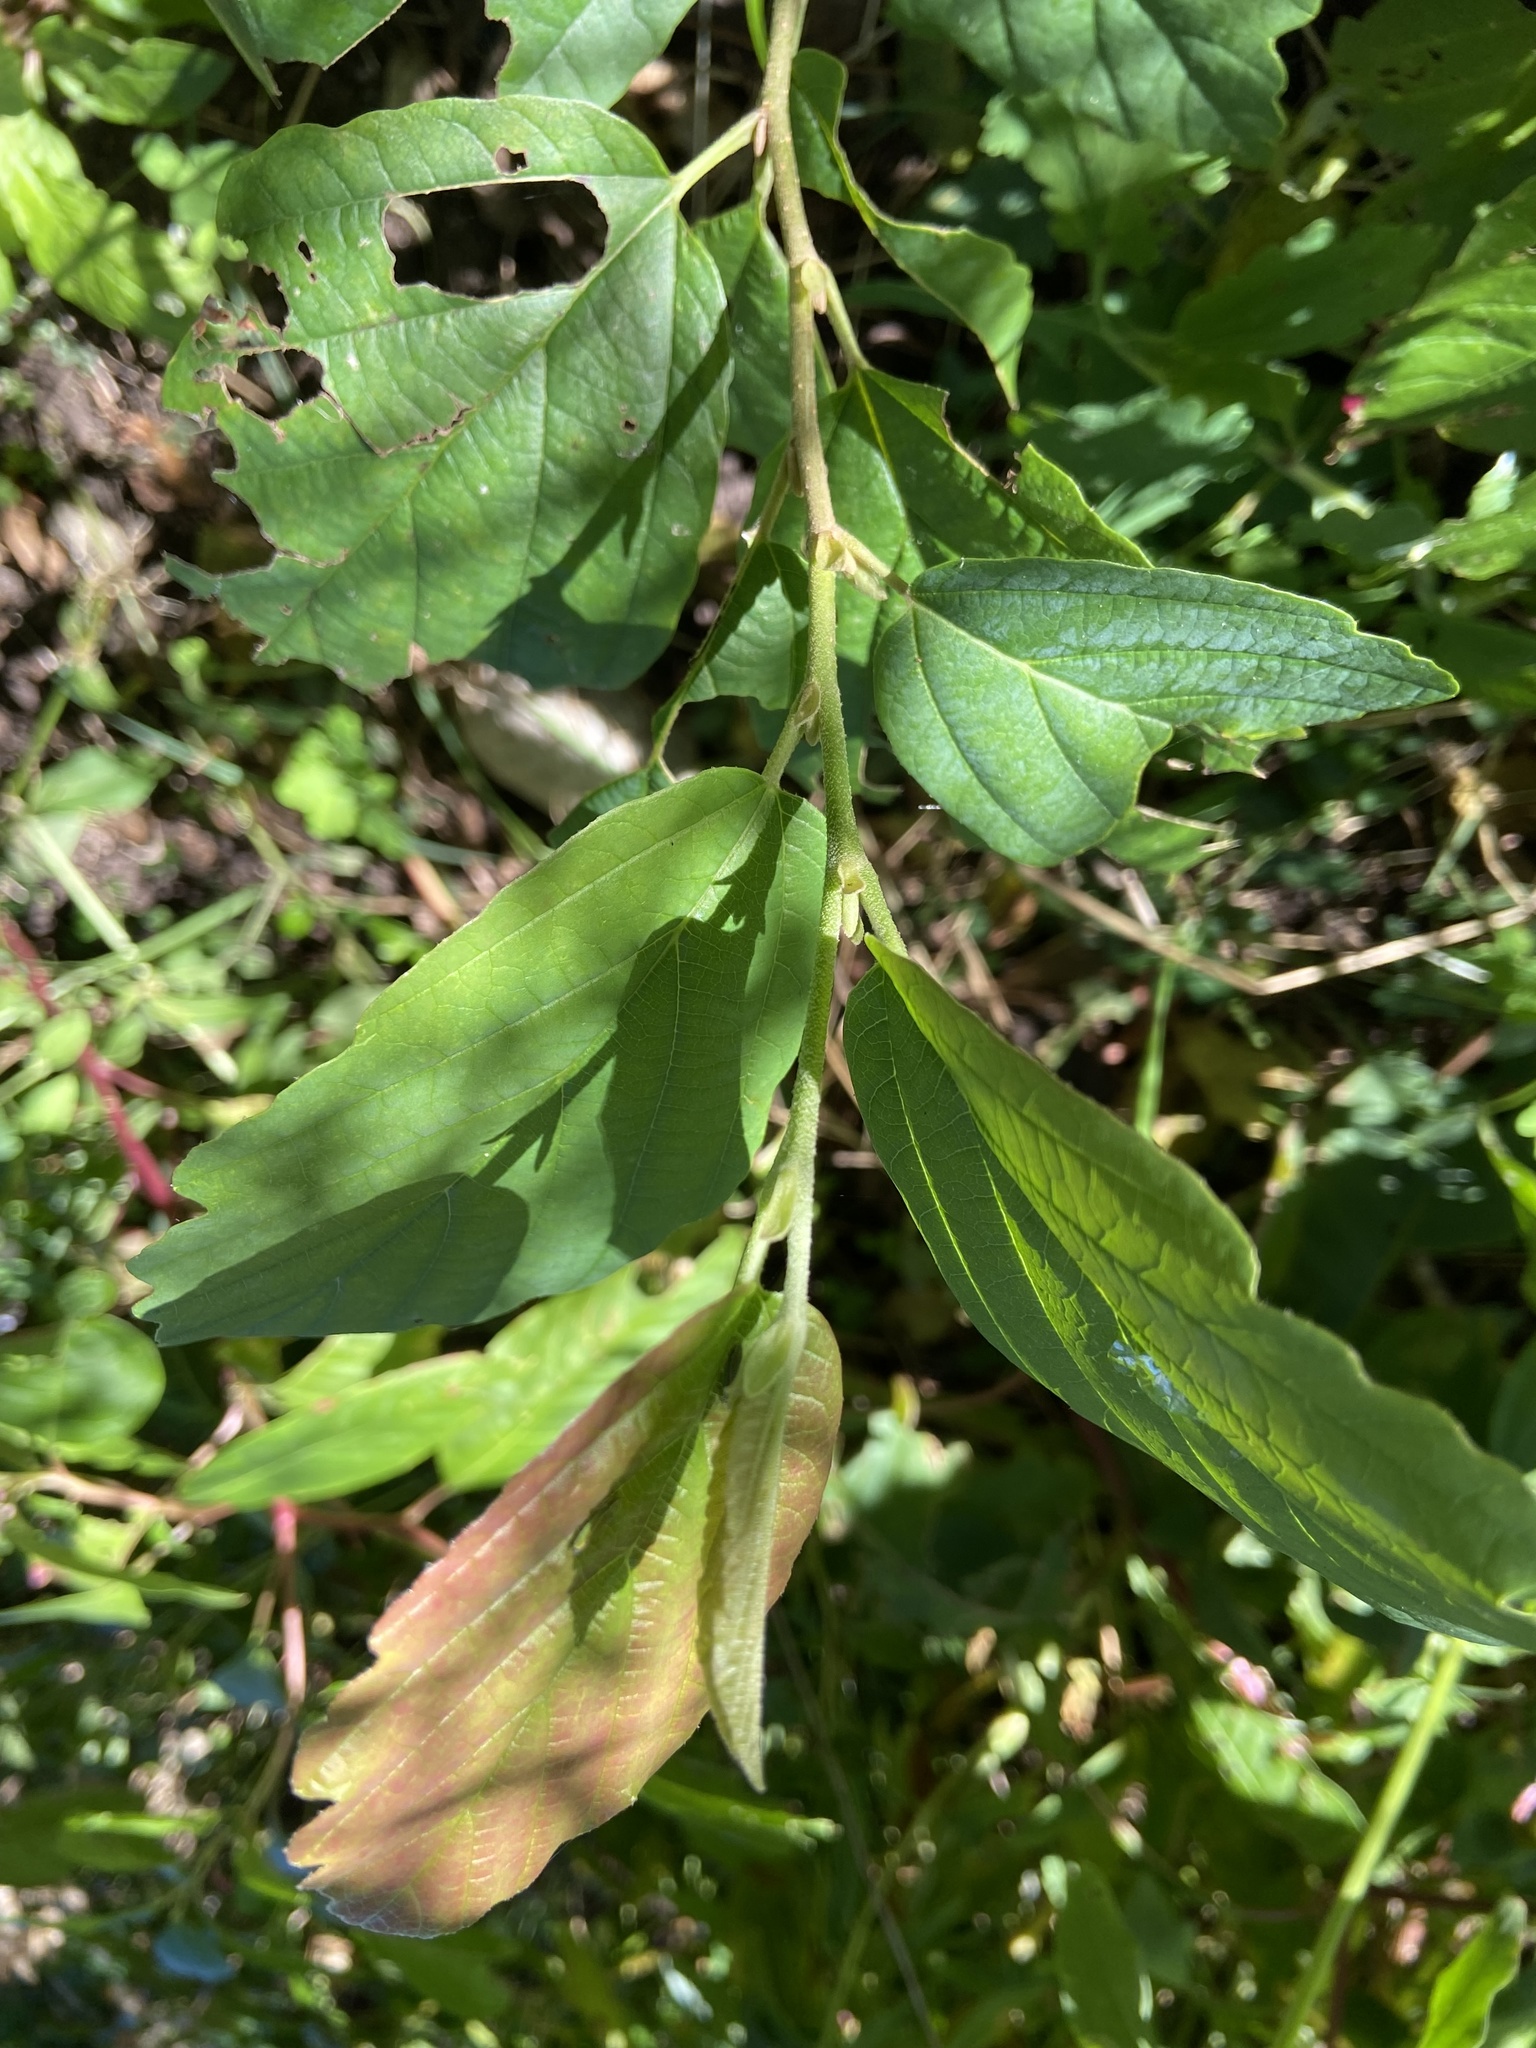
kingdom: Plantae
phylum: Tracheophyta
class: Magnoliopsida
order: Saxifragales
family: Hamamelidaceae
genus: Hamamelis
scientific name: Hamamelis virginiana
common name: Witch-hazel
